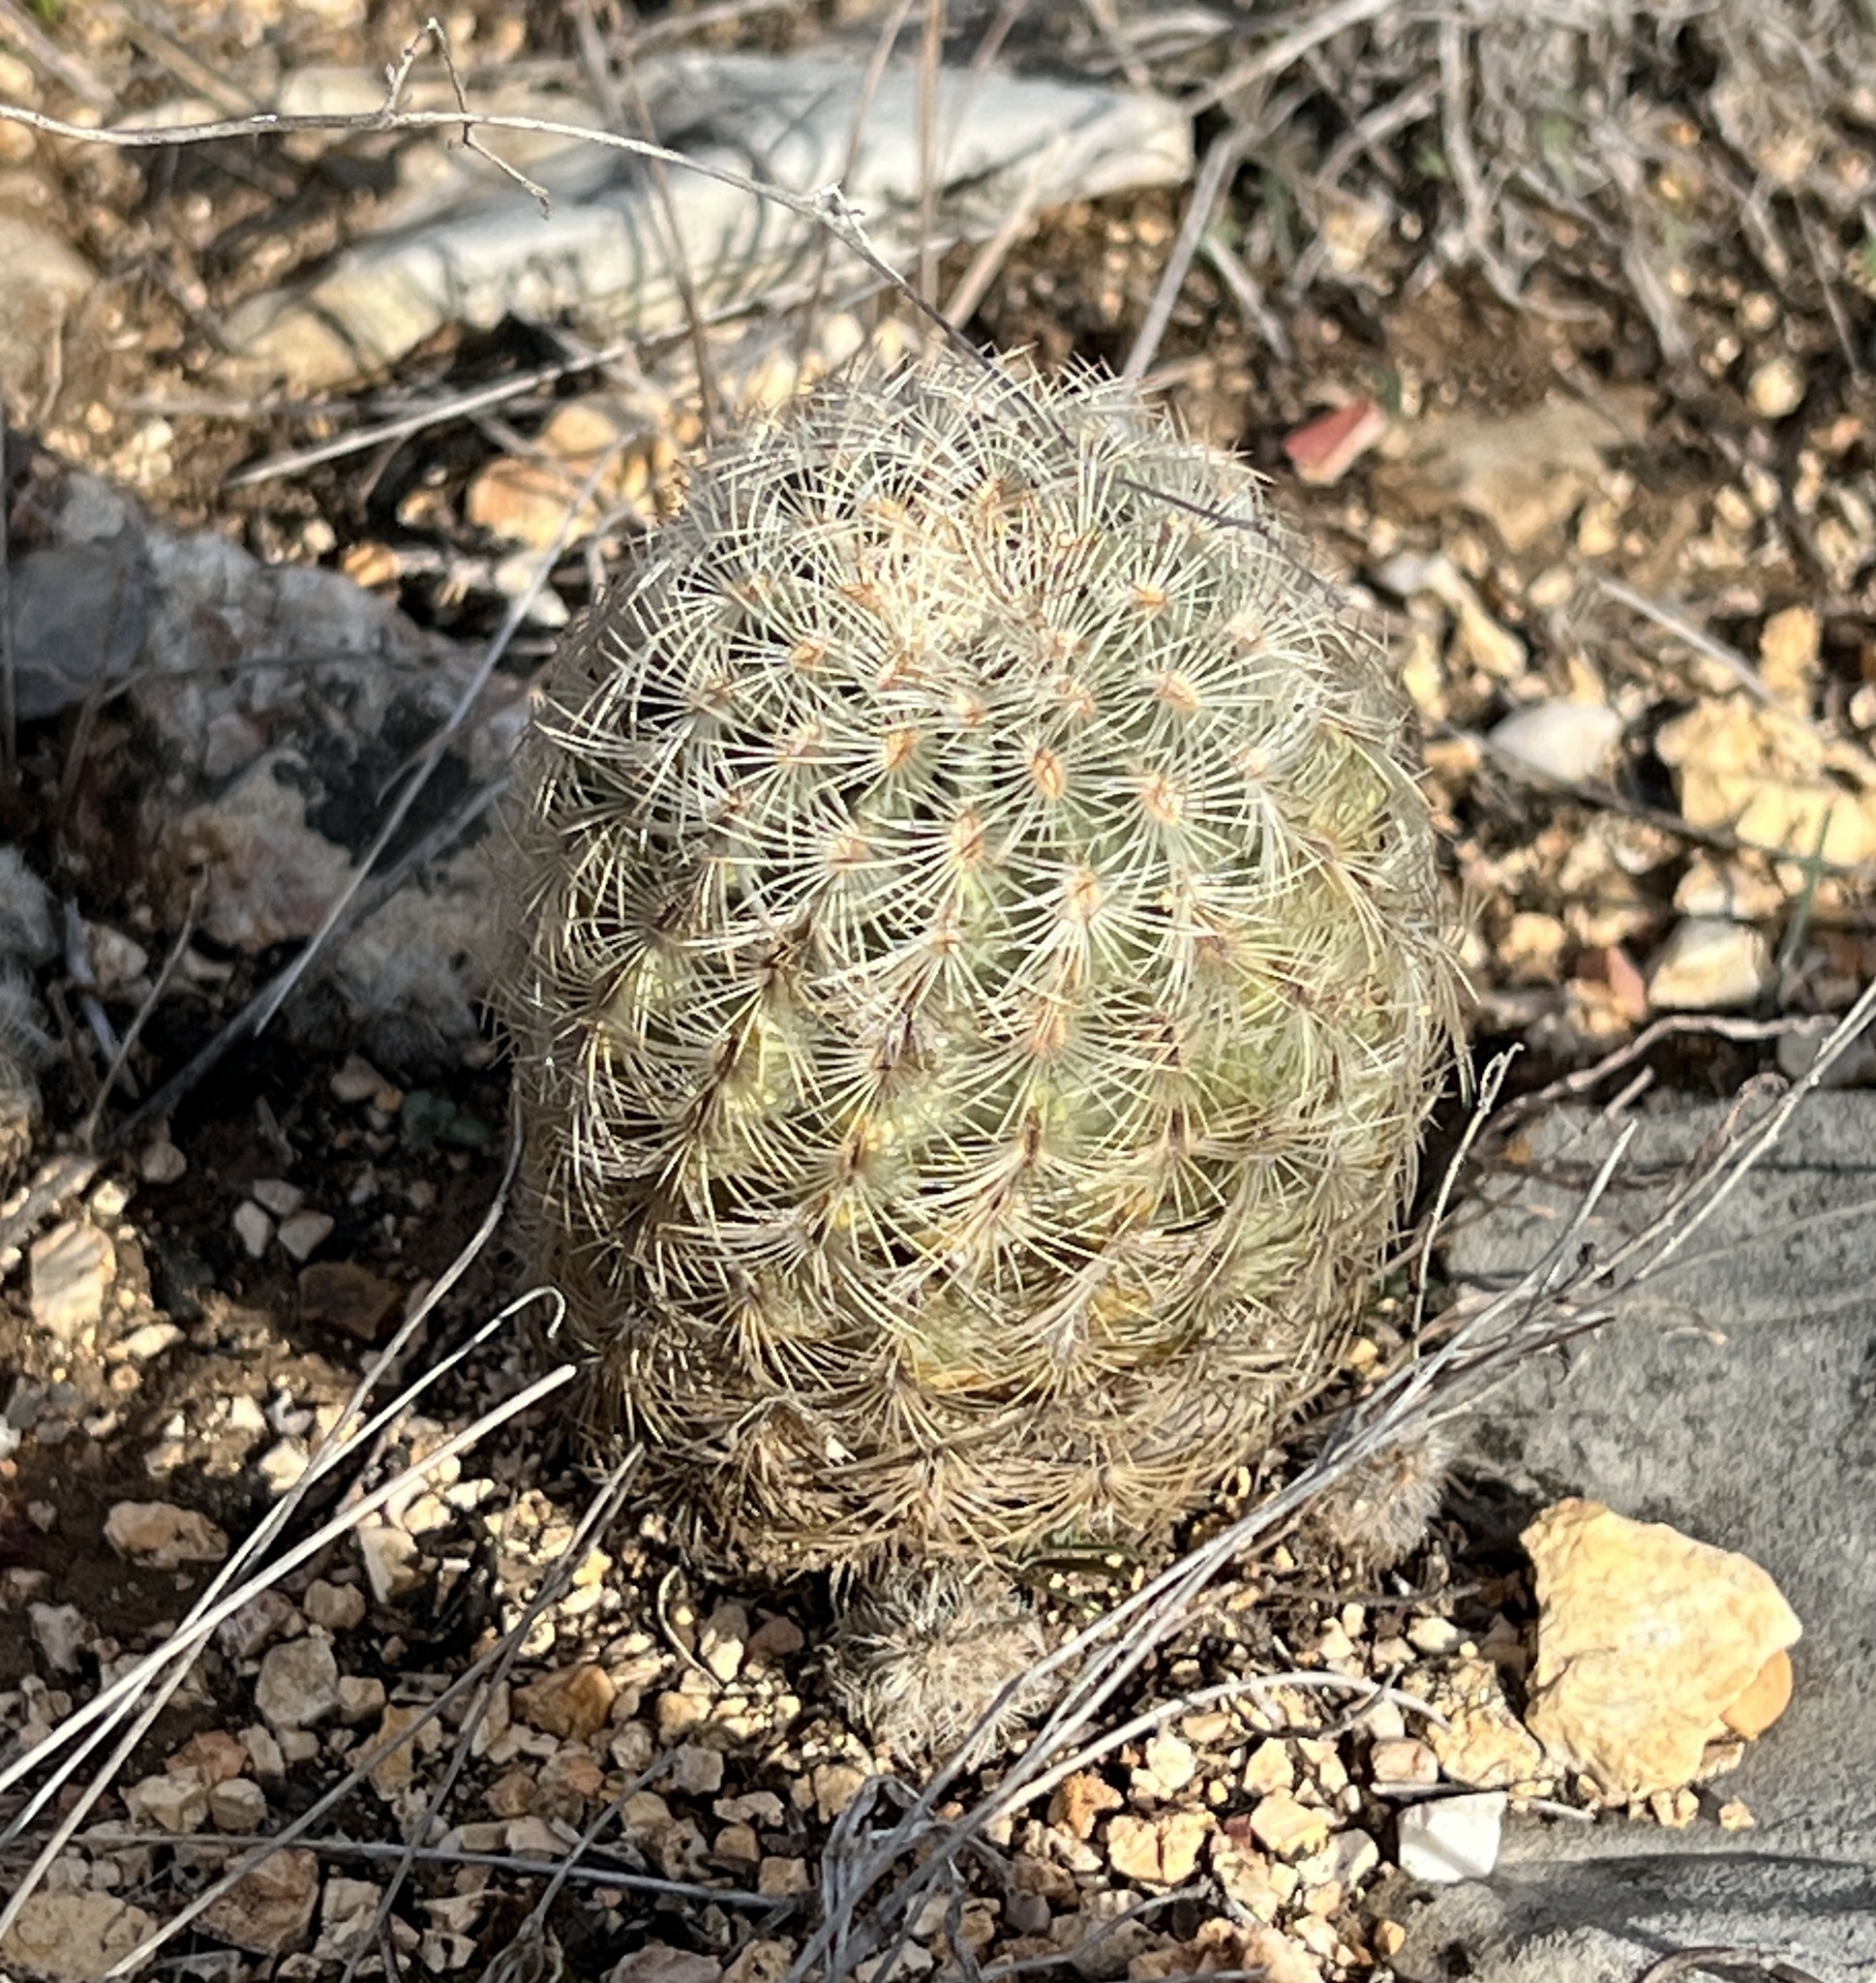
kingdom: Plantae
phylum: Tracheophyta
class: Magnoliopsida
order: Caryophyllales
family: Cactaceae
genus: Echinocereus
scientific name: Echinocereus reichenbachii
